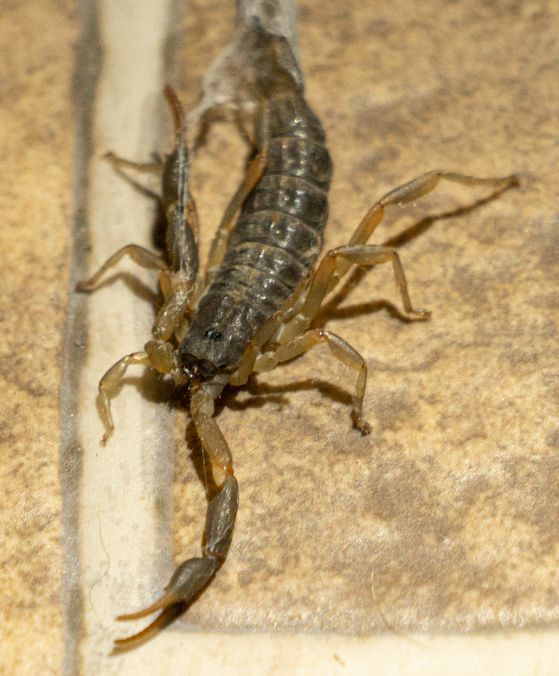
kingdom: Animalia
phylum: Arthropoda
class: Arachnida
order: Scorpiones
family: Buthidae
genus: Uroplectes
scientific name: Uroplectes triangulifer
